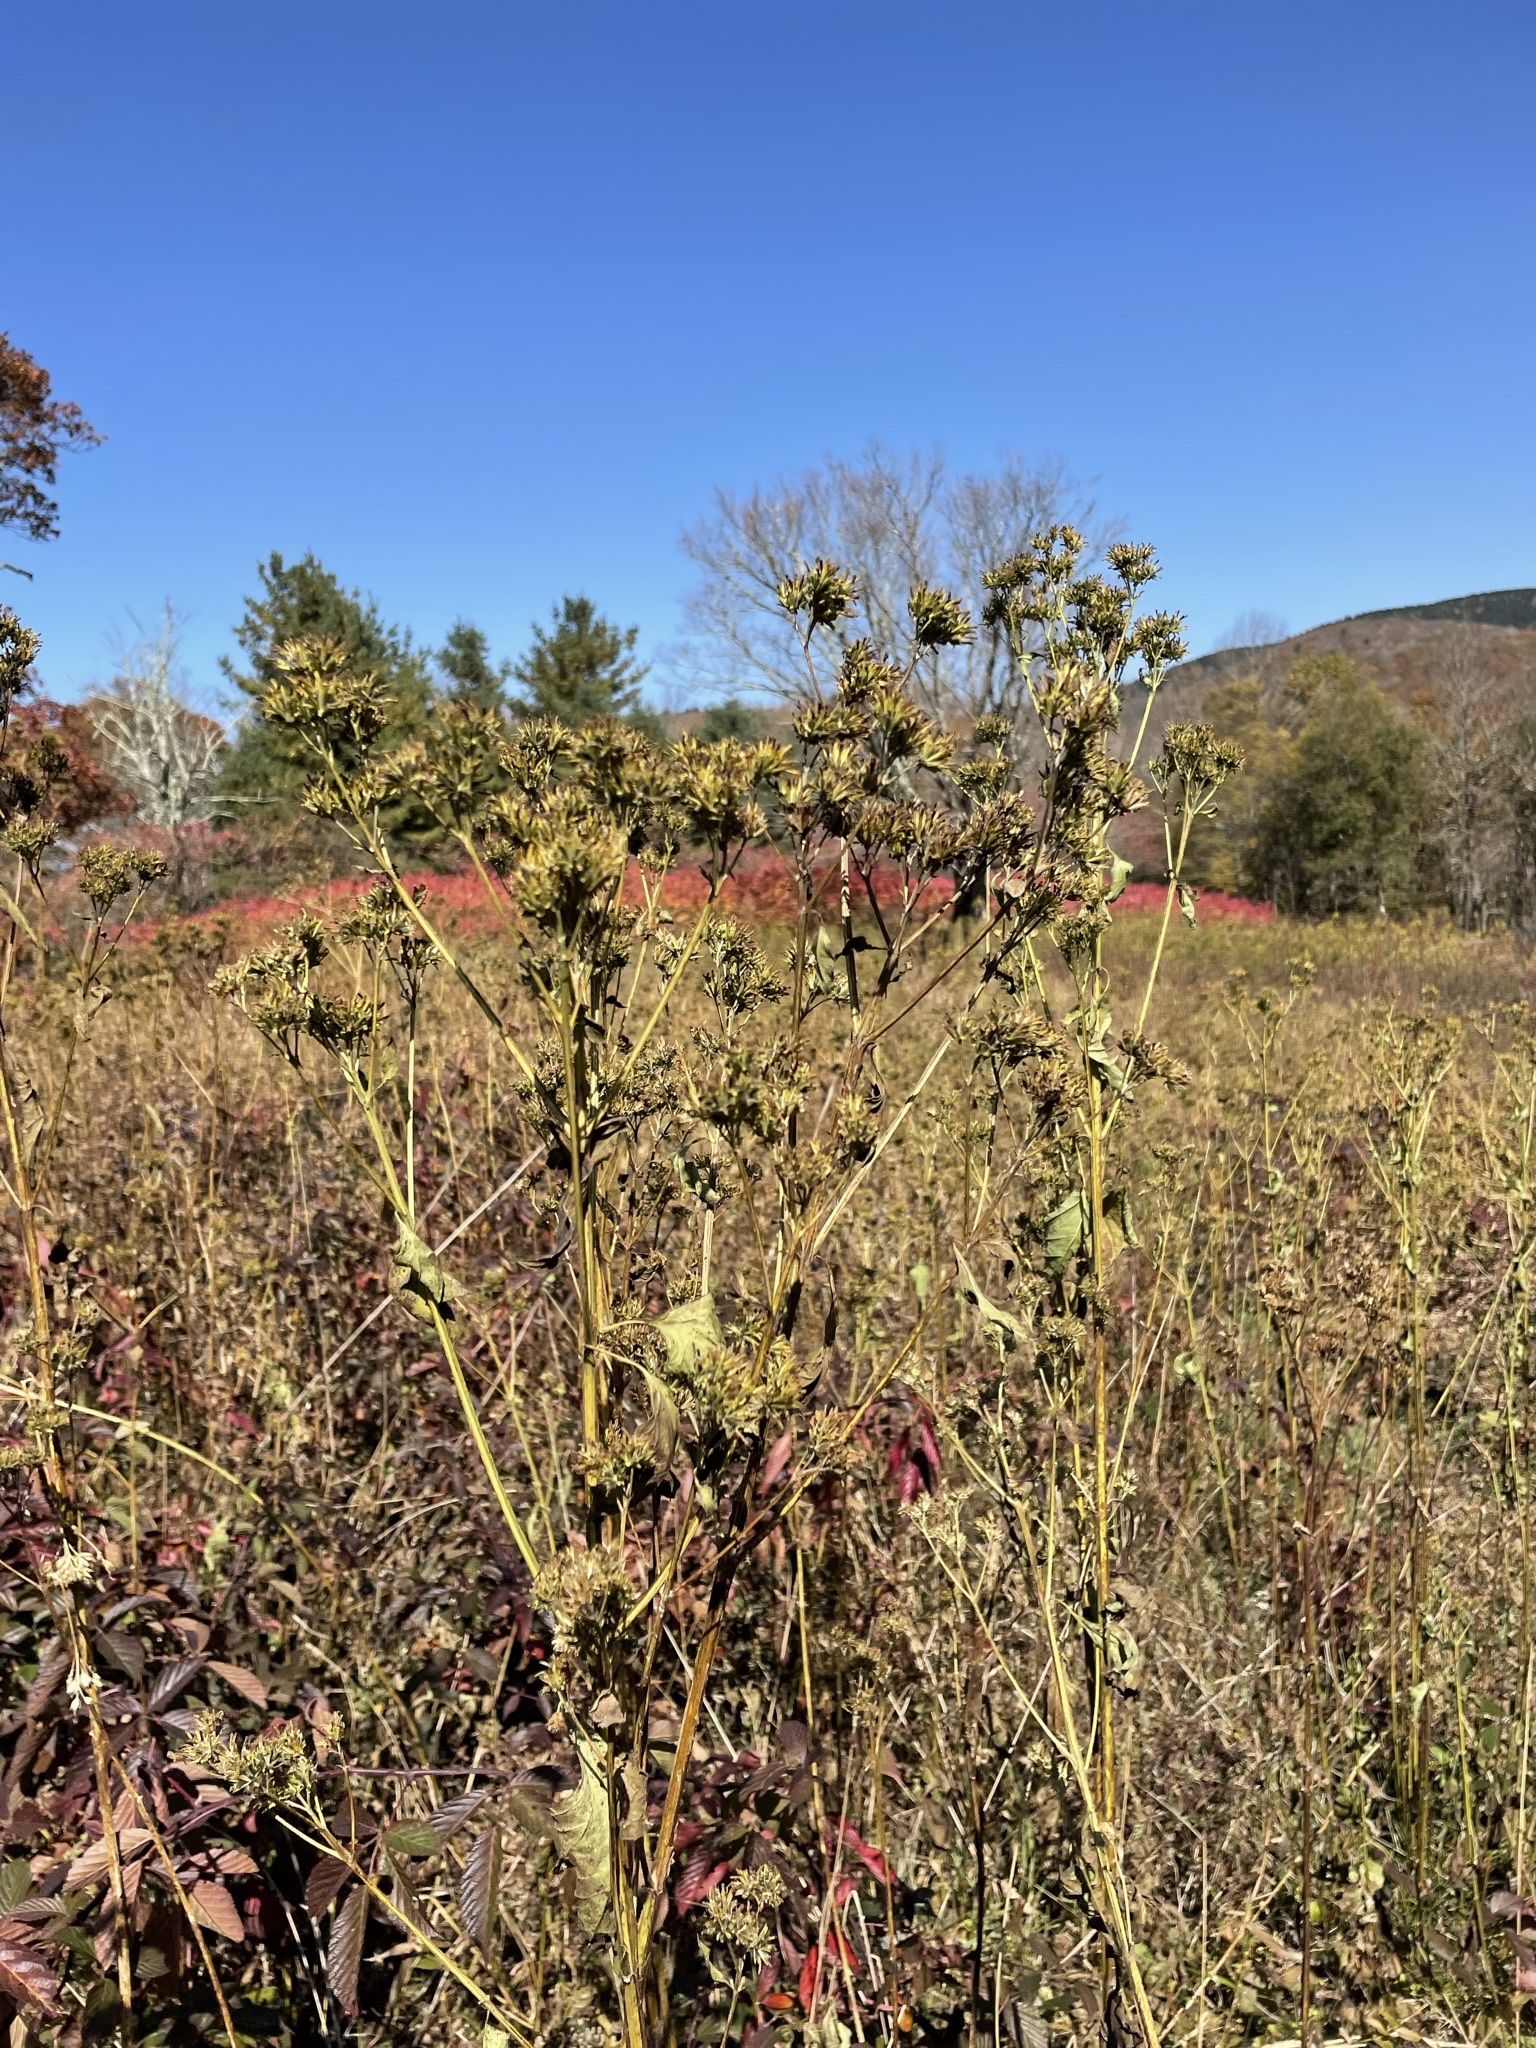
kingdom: Plantae
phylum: Tracheophyta
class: Magnoliopsida
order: Asterales
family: Asteraceae
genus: Verbesina
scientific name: Verbesina occidentalis
